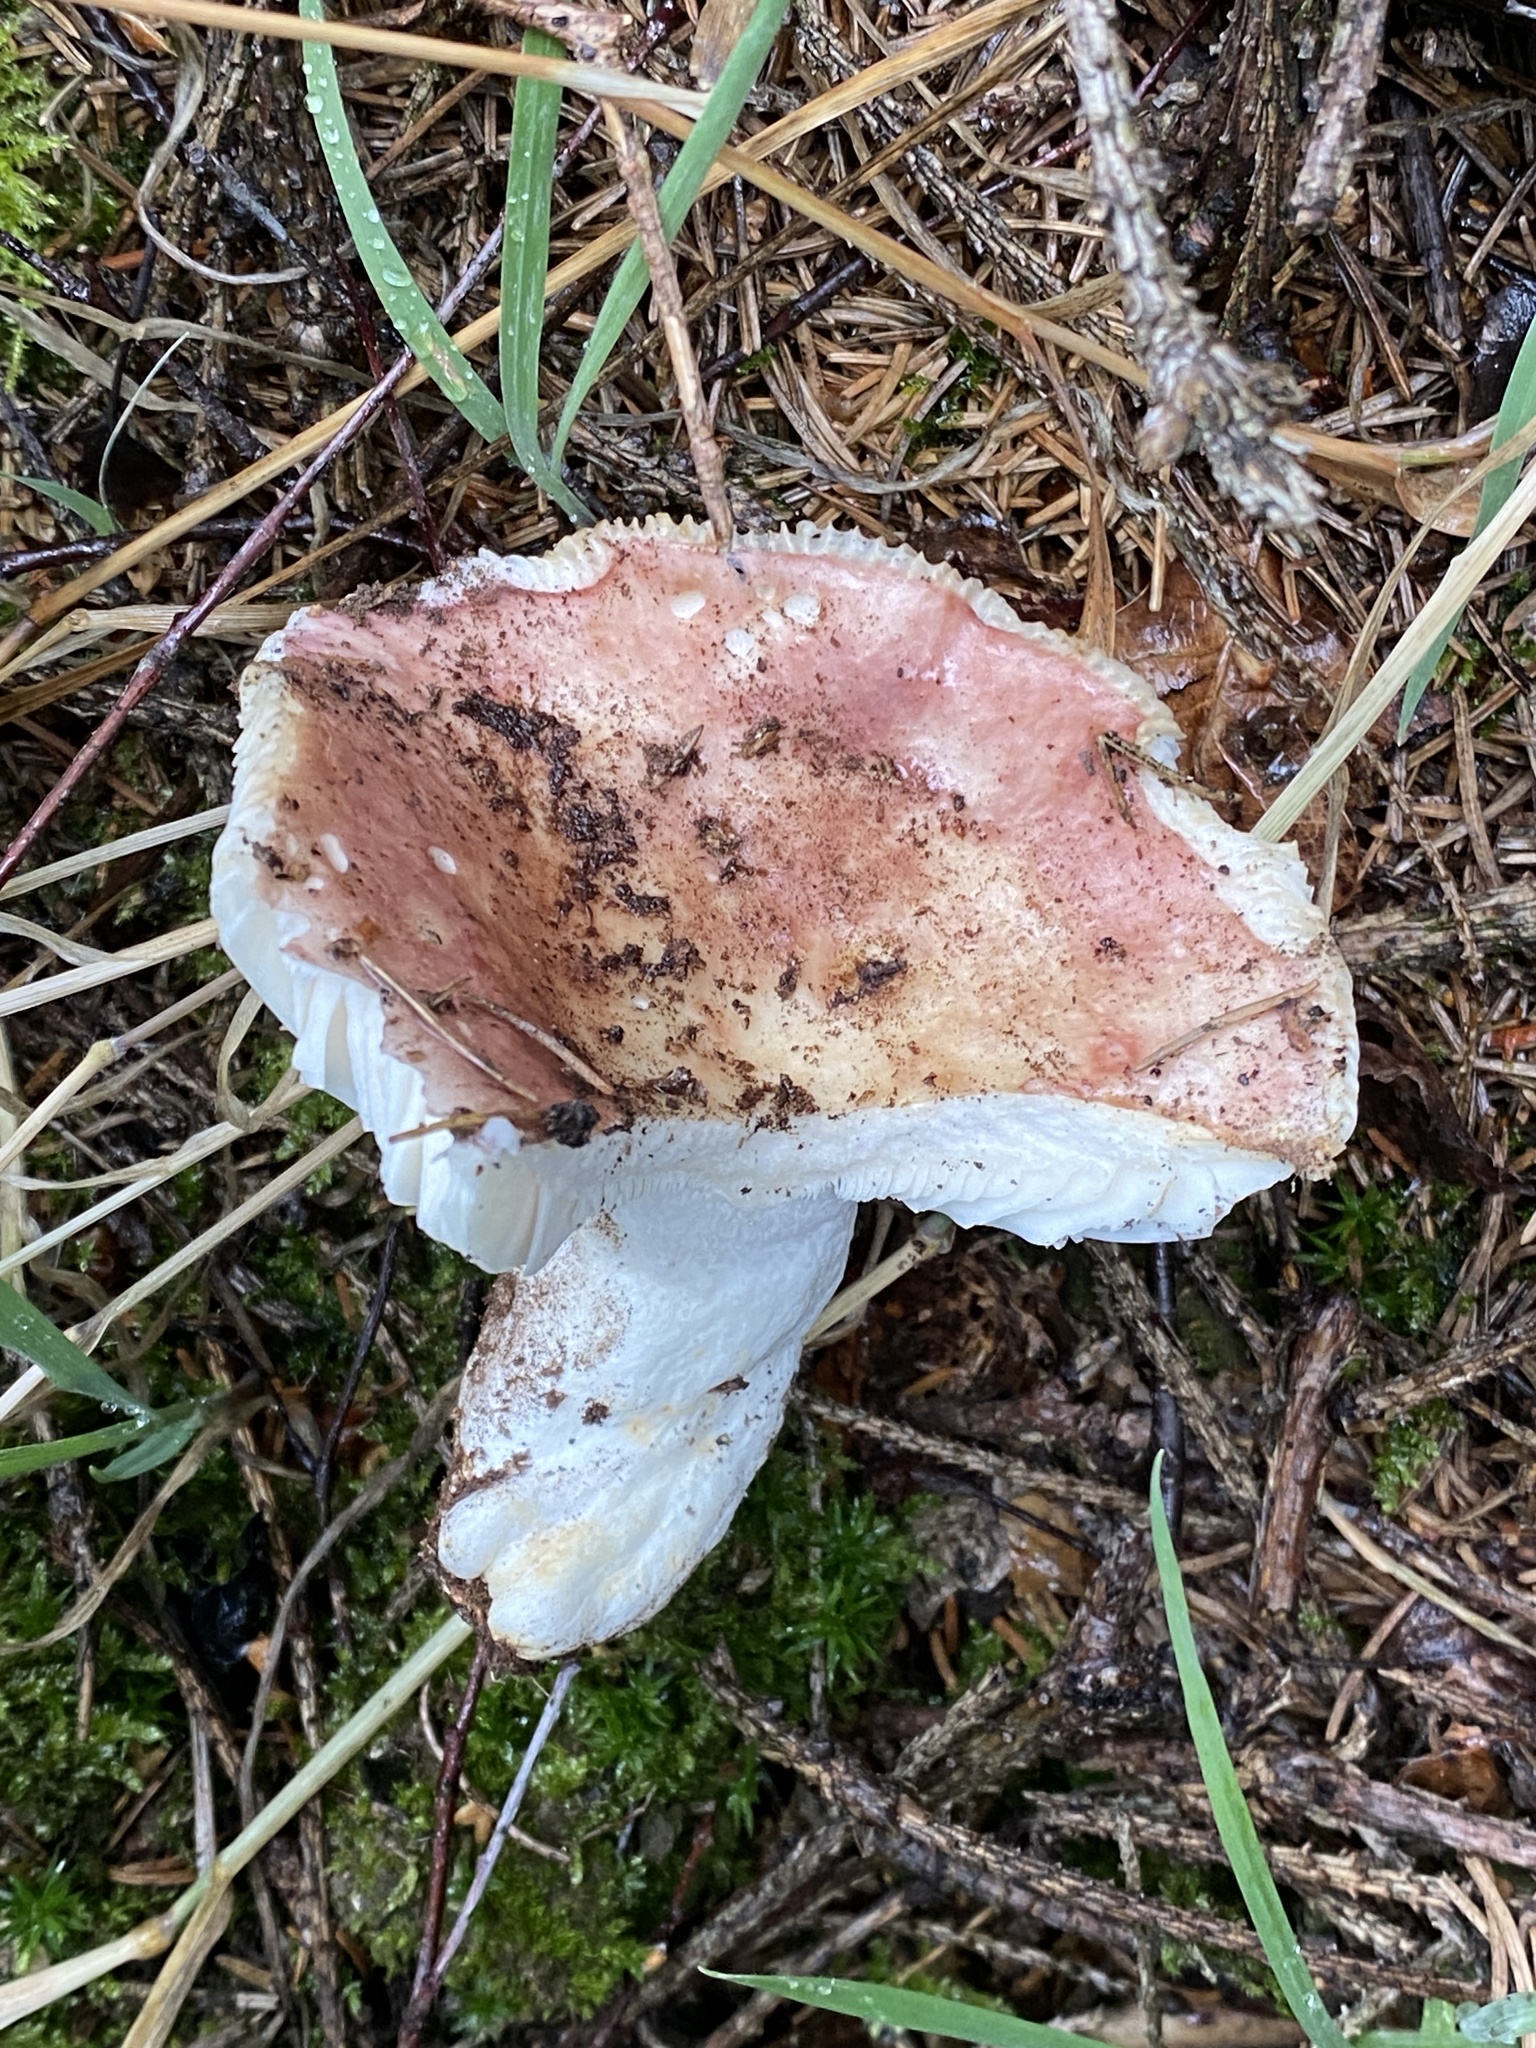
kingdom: Fungi
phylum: Basidiomycota
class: Agaricomycetes
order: Russulales
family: Russulaceae
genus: Russula
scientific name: Russula vesca
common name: Bare-toothed russula
